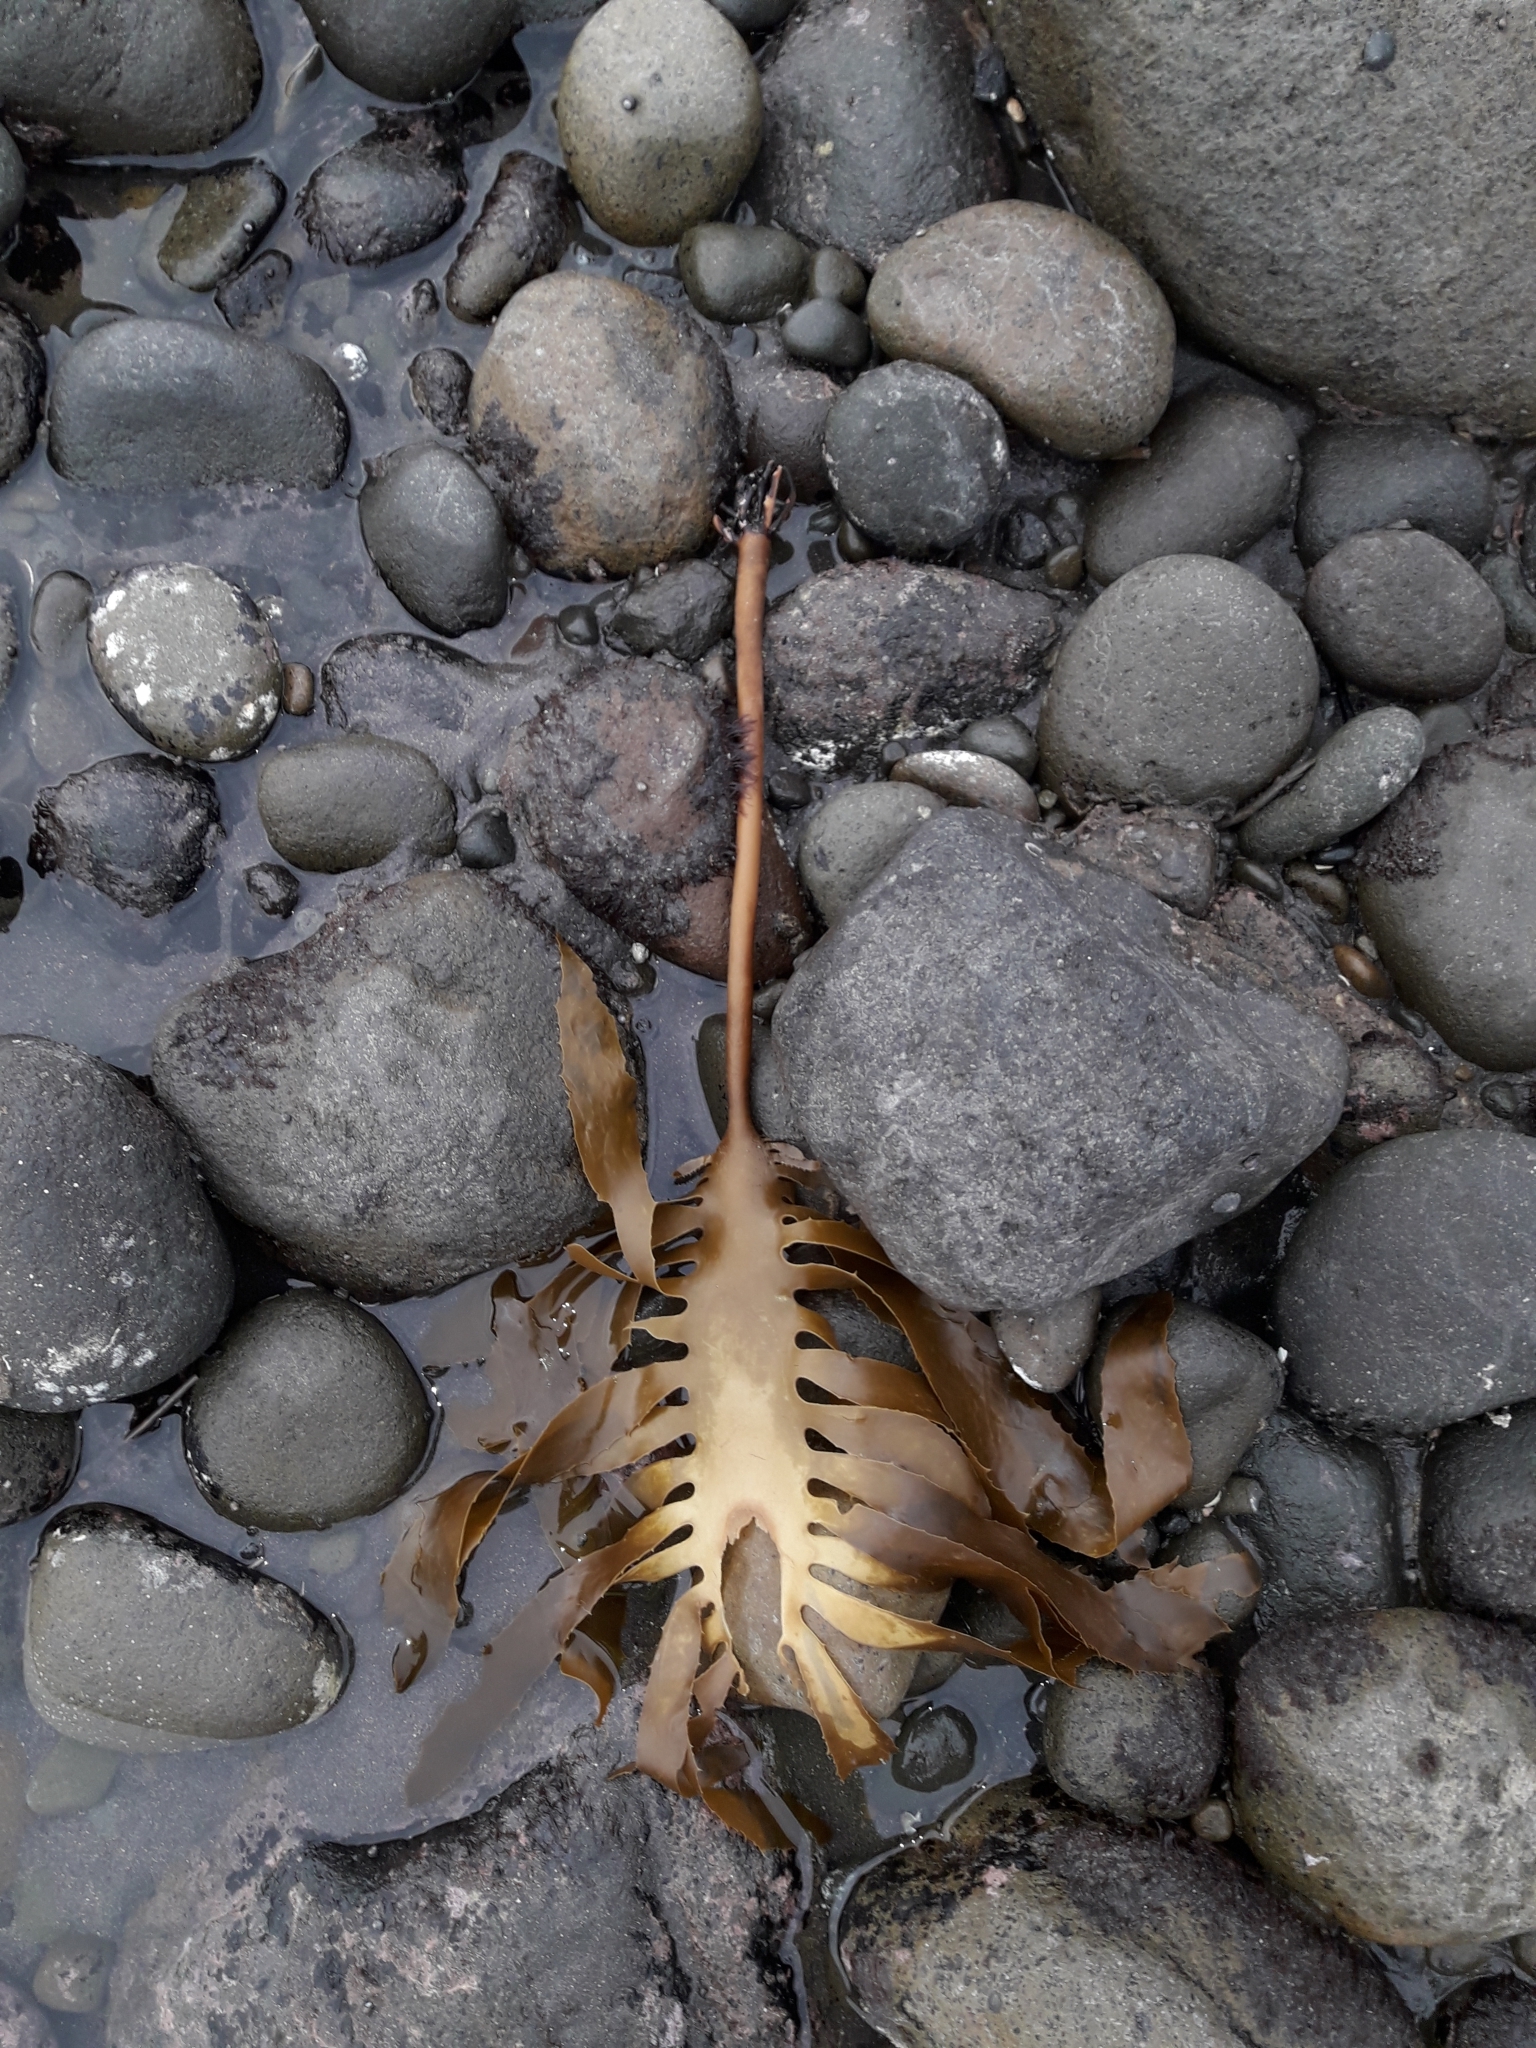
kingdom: Chromista
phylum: Ochrophyta
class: Phaeophyceae
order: Laminariales
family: Lessoniaceae
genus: Ecklonia
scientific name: Ecklonia radiata
